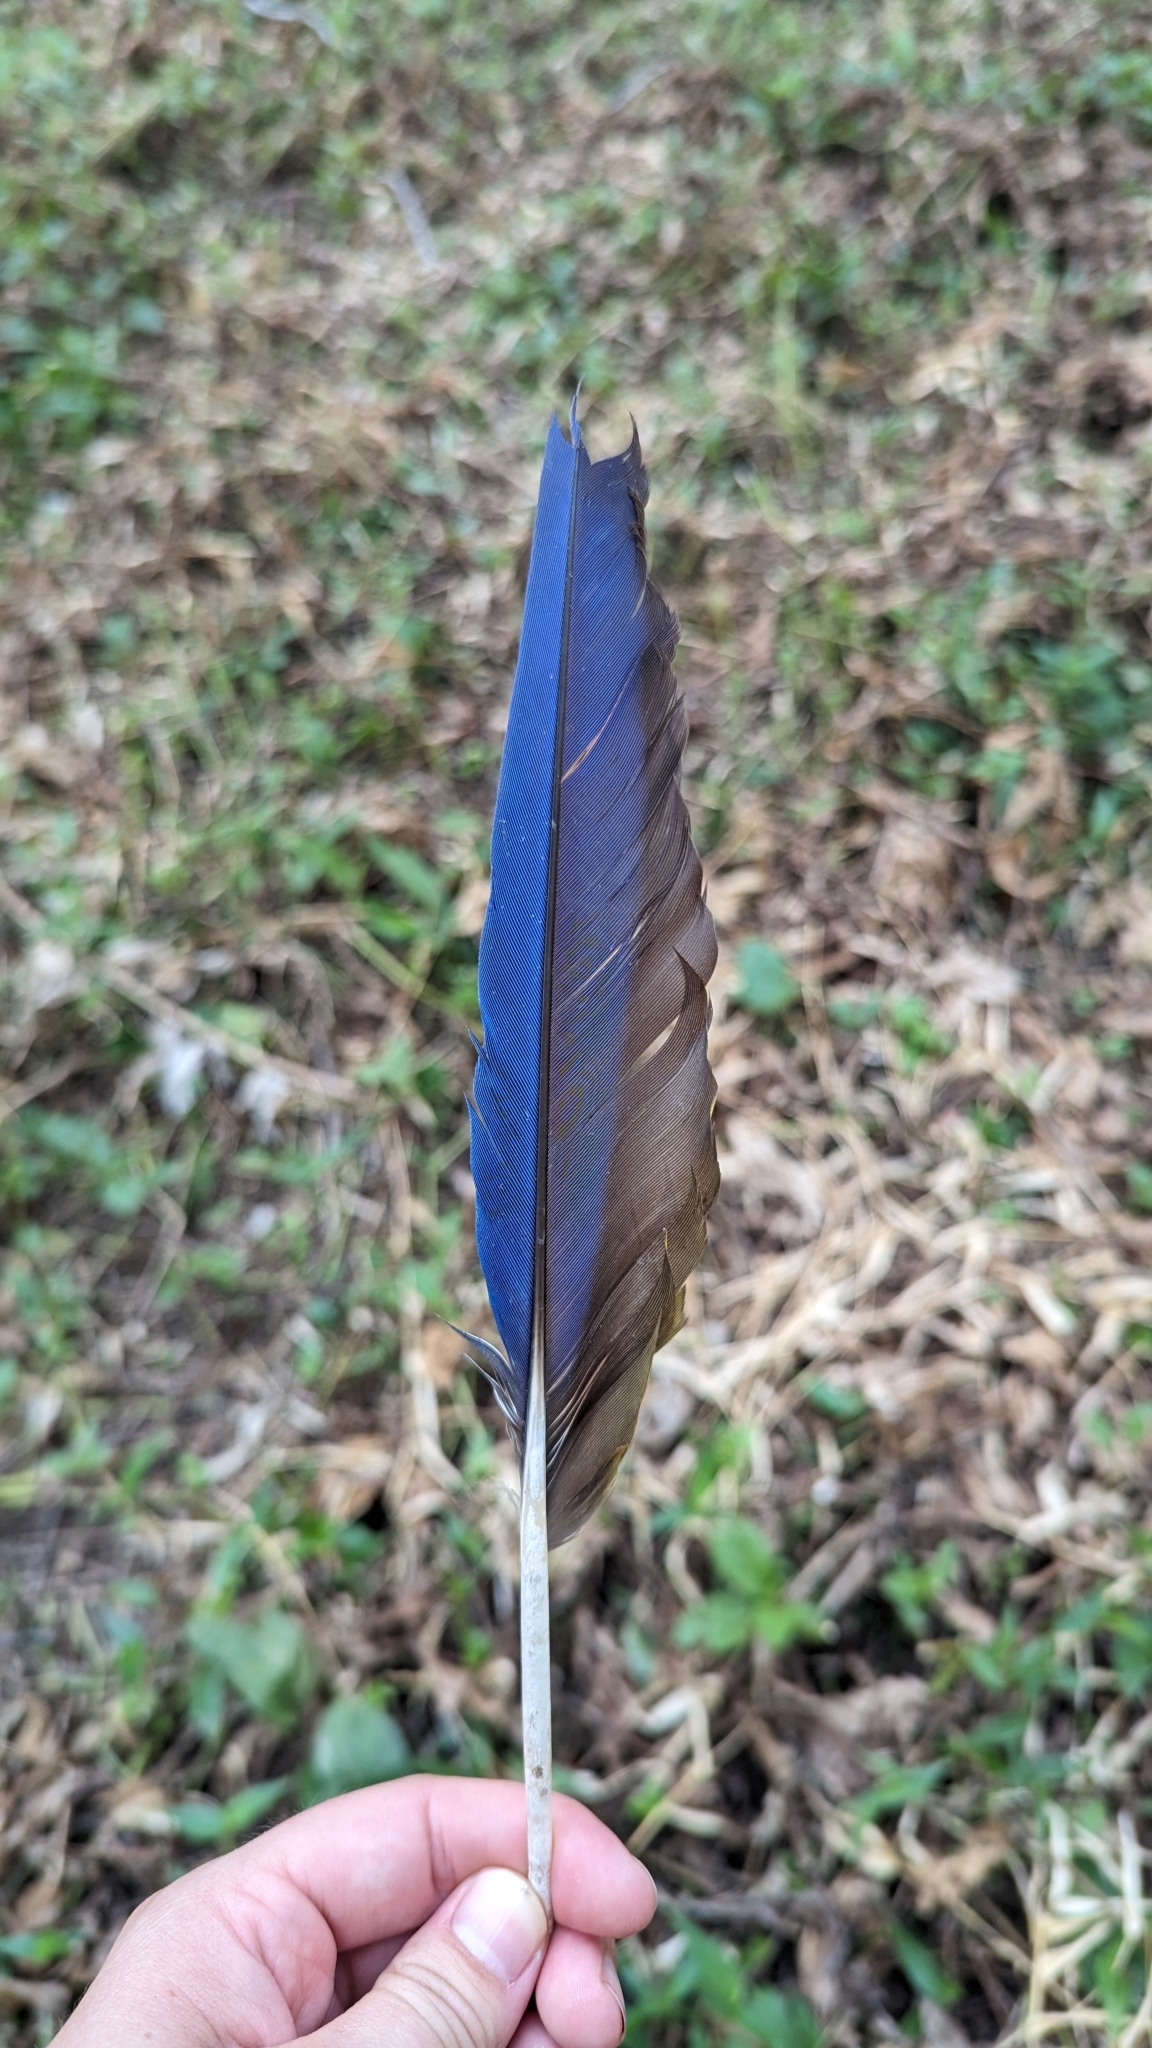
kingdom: Animalia
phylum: Chordata
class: Aves
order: Psittaciformes
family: Psittacidae
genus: Ara
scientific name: Ara macao
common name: Scarlet macaw
